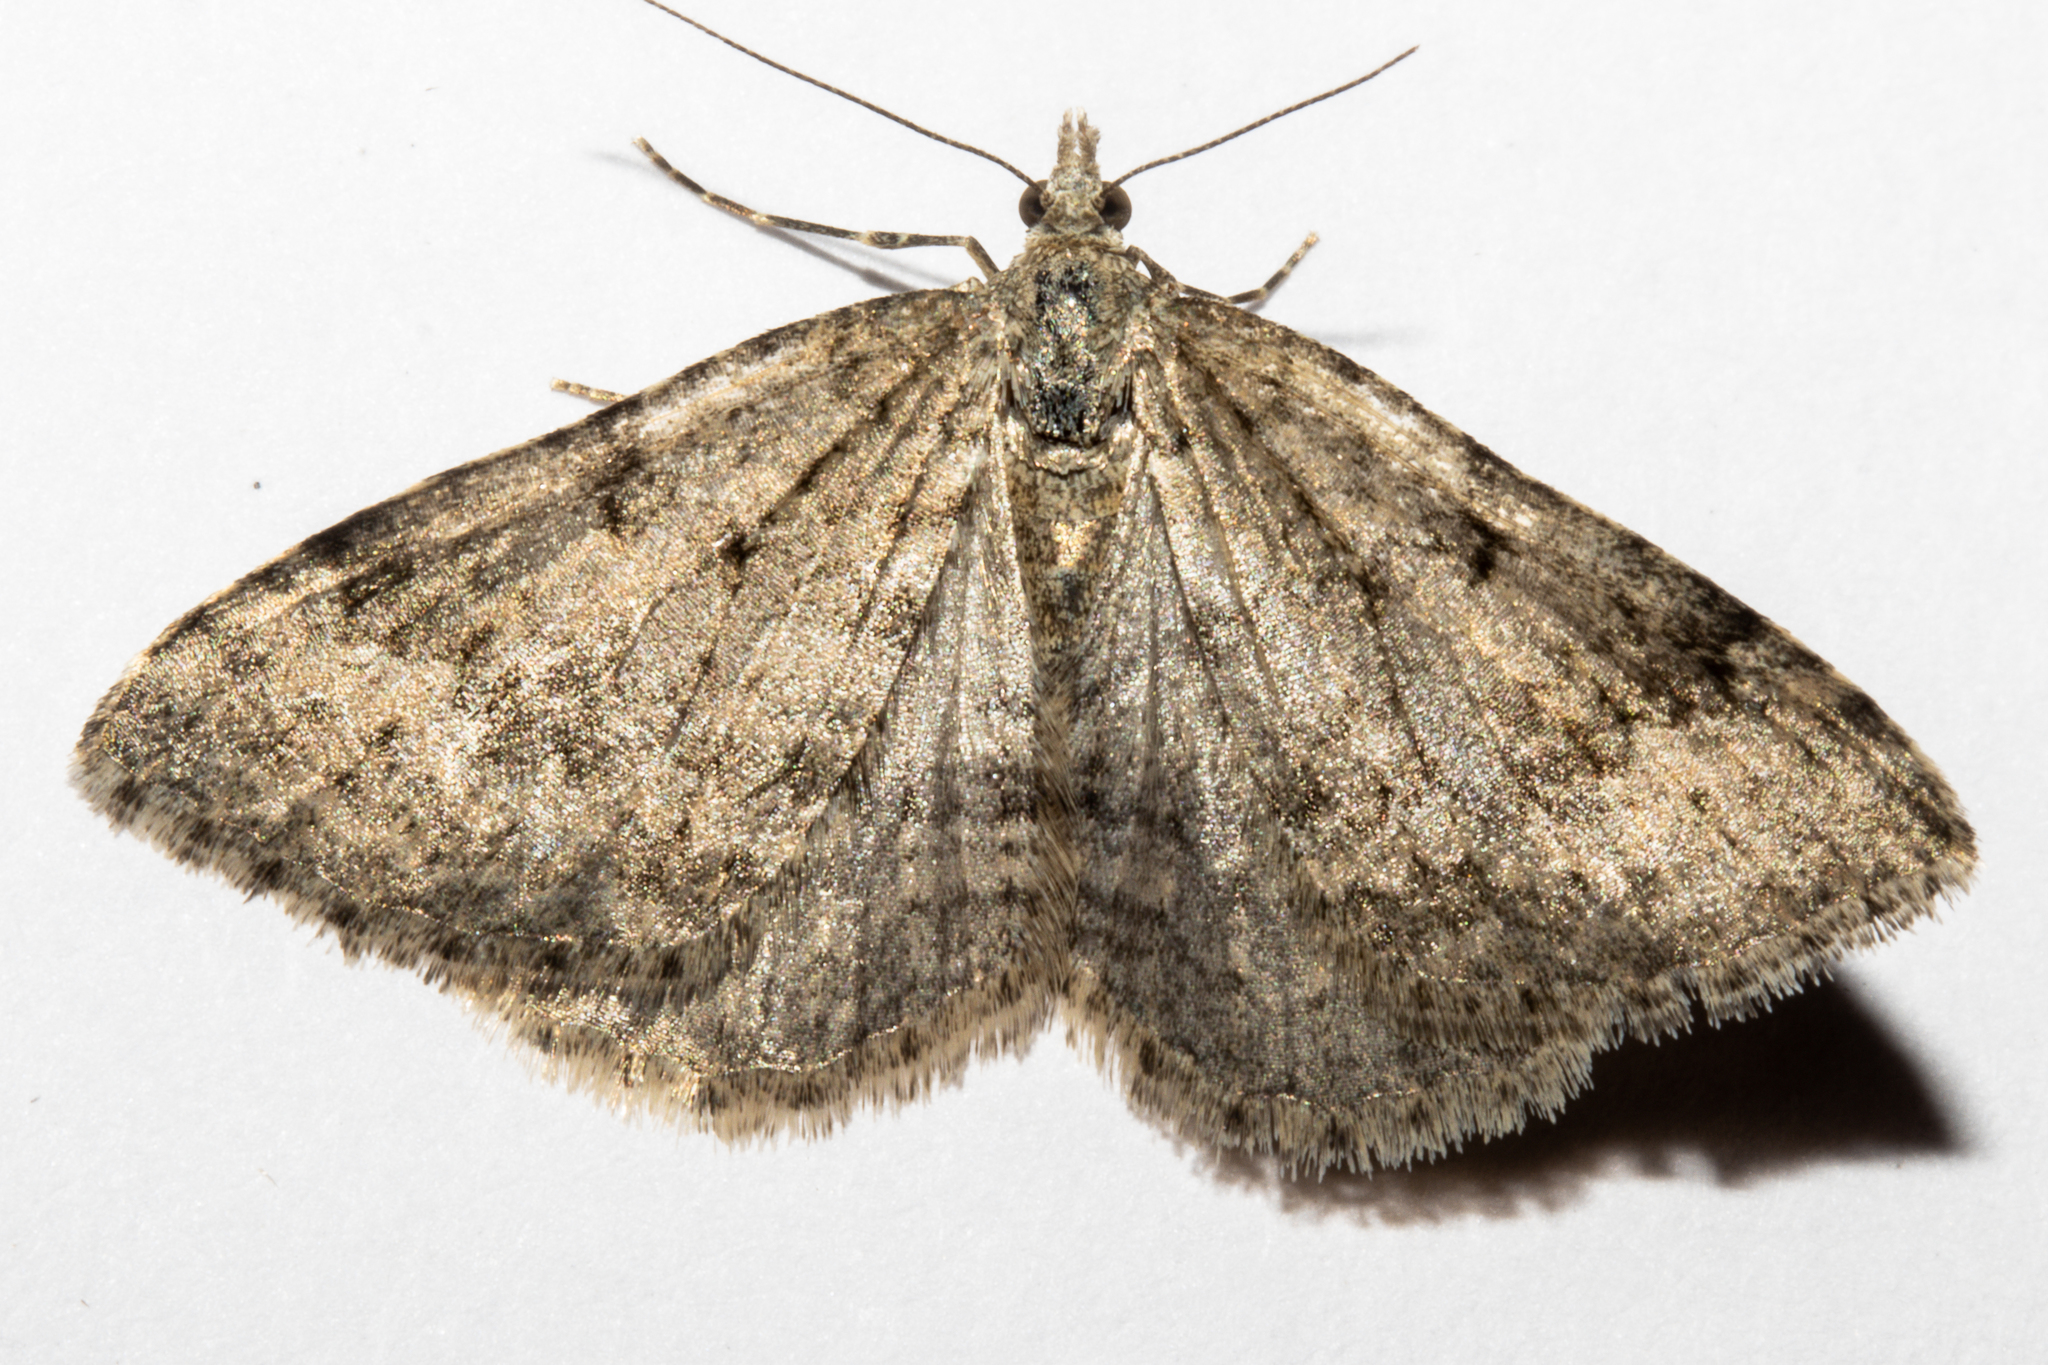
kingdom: Animalia
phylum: Arthropoda
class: Insecta
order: Lepidoptera
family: Geometridae
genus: Helastia
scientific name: Helastia corcularia
